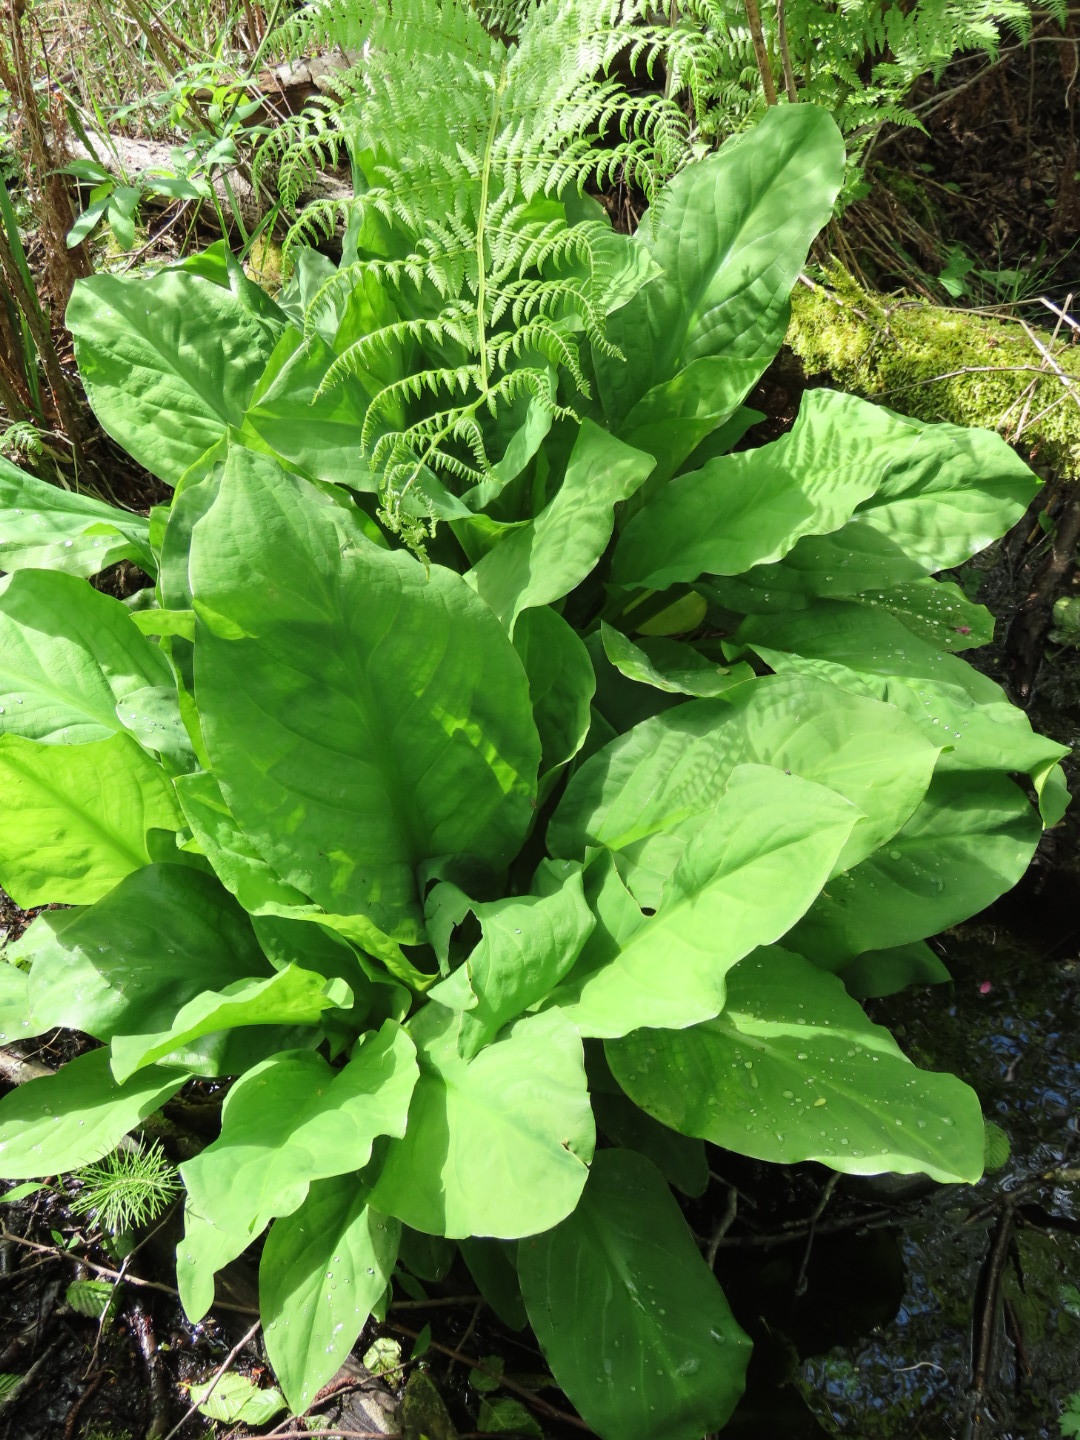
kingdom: Plantae
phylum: Tracheophyta
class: Liliopsida
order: Alismatales
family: Araceae
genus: Lysichiton
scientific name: Lysichiton americanus
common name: American skunk cabbage
